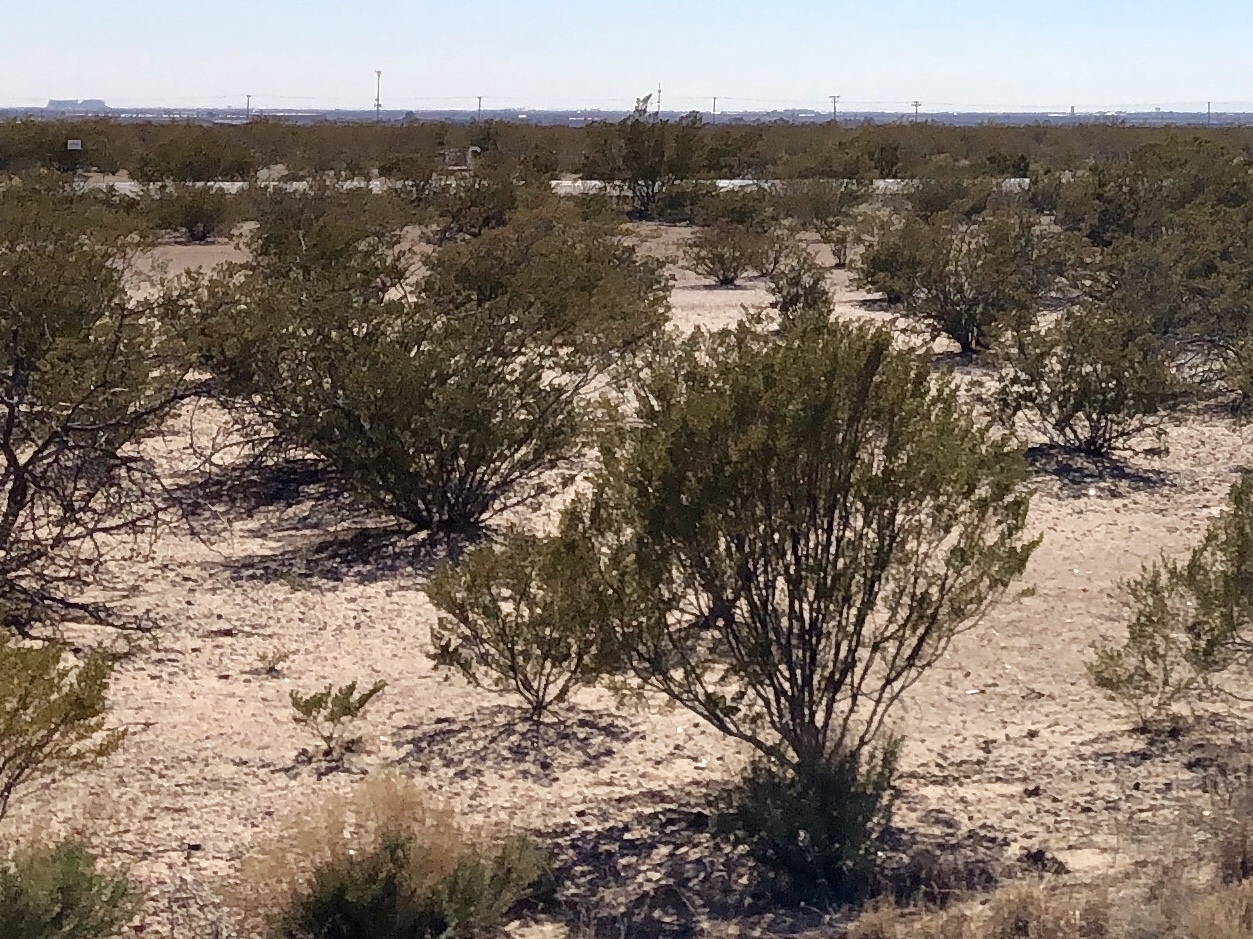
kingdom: Plantae
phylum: Tracheophyta
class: Magnoliopsida
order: Zygophyllales
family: Zygophyllaceae
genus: Larrea
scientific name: Larrea tridentata
